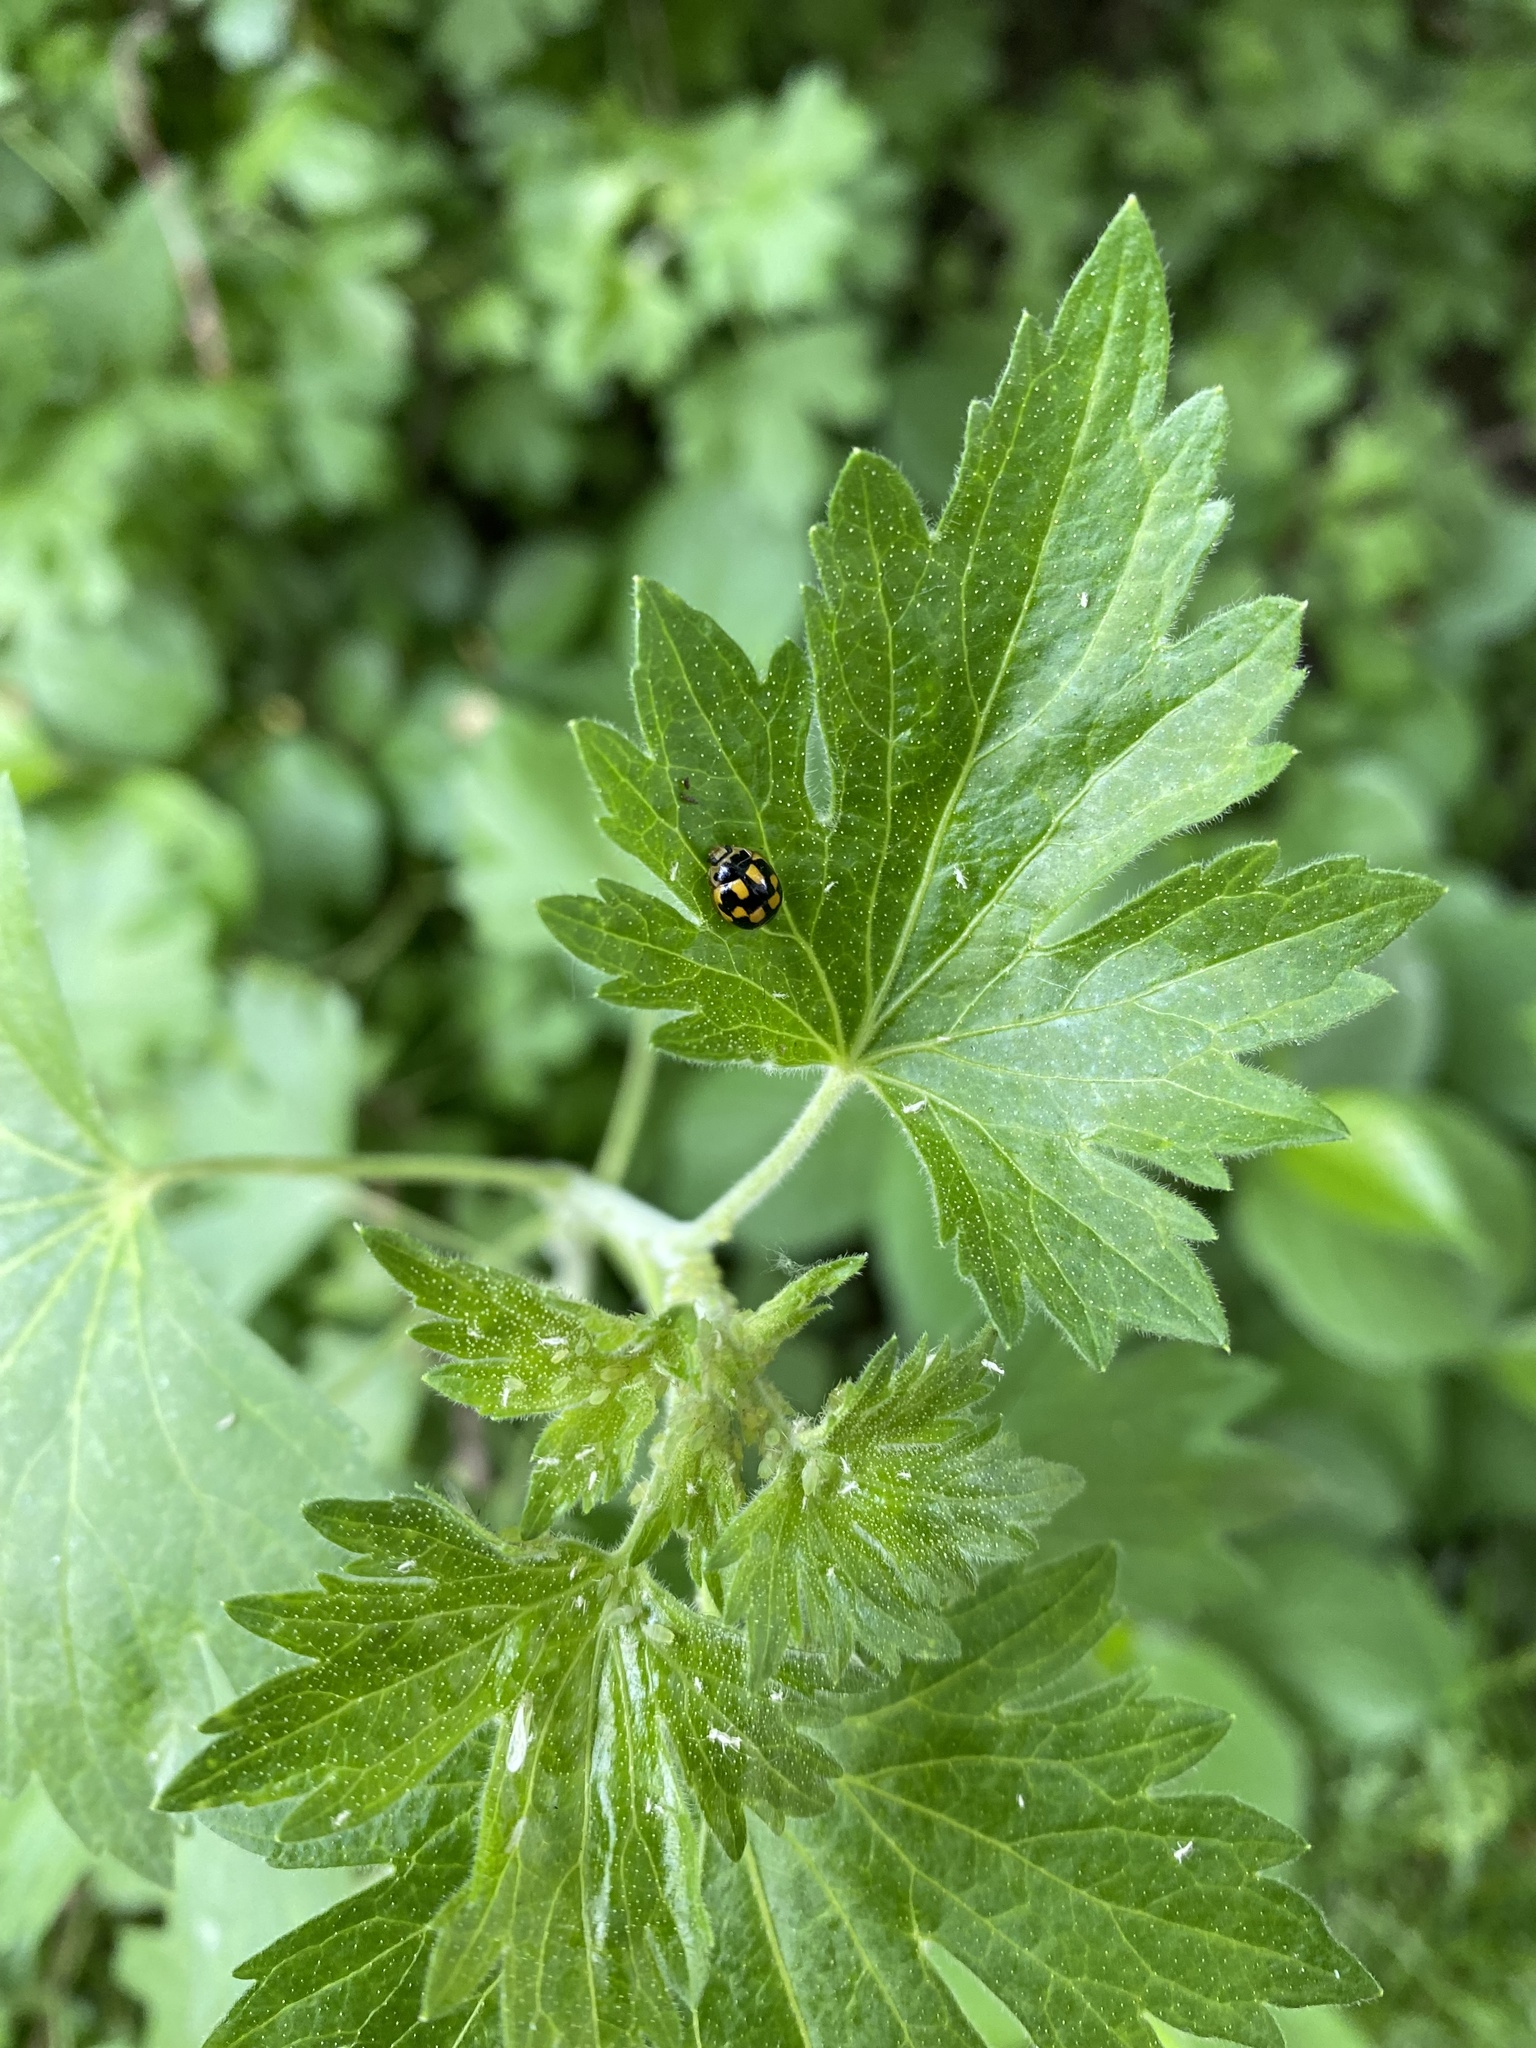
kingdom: Animalia
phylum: Arthropoda
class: Insecta
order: Coleoptera
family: Coccinellidae
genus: Propylaea
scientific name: Propylaea quatuordecimpunctata
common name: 14-spotted ladybird beetle
